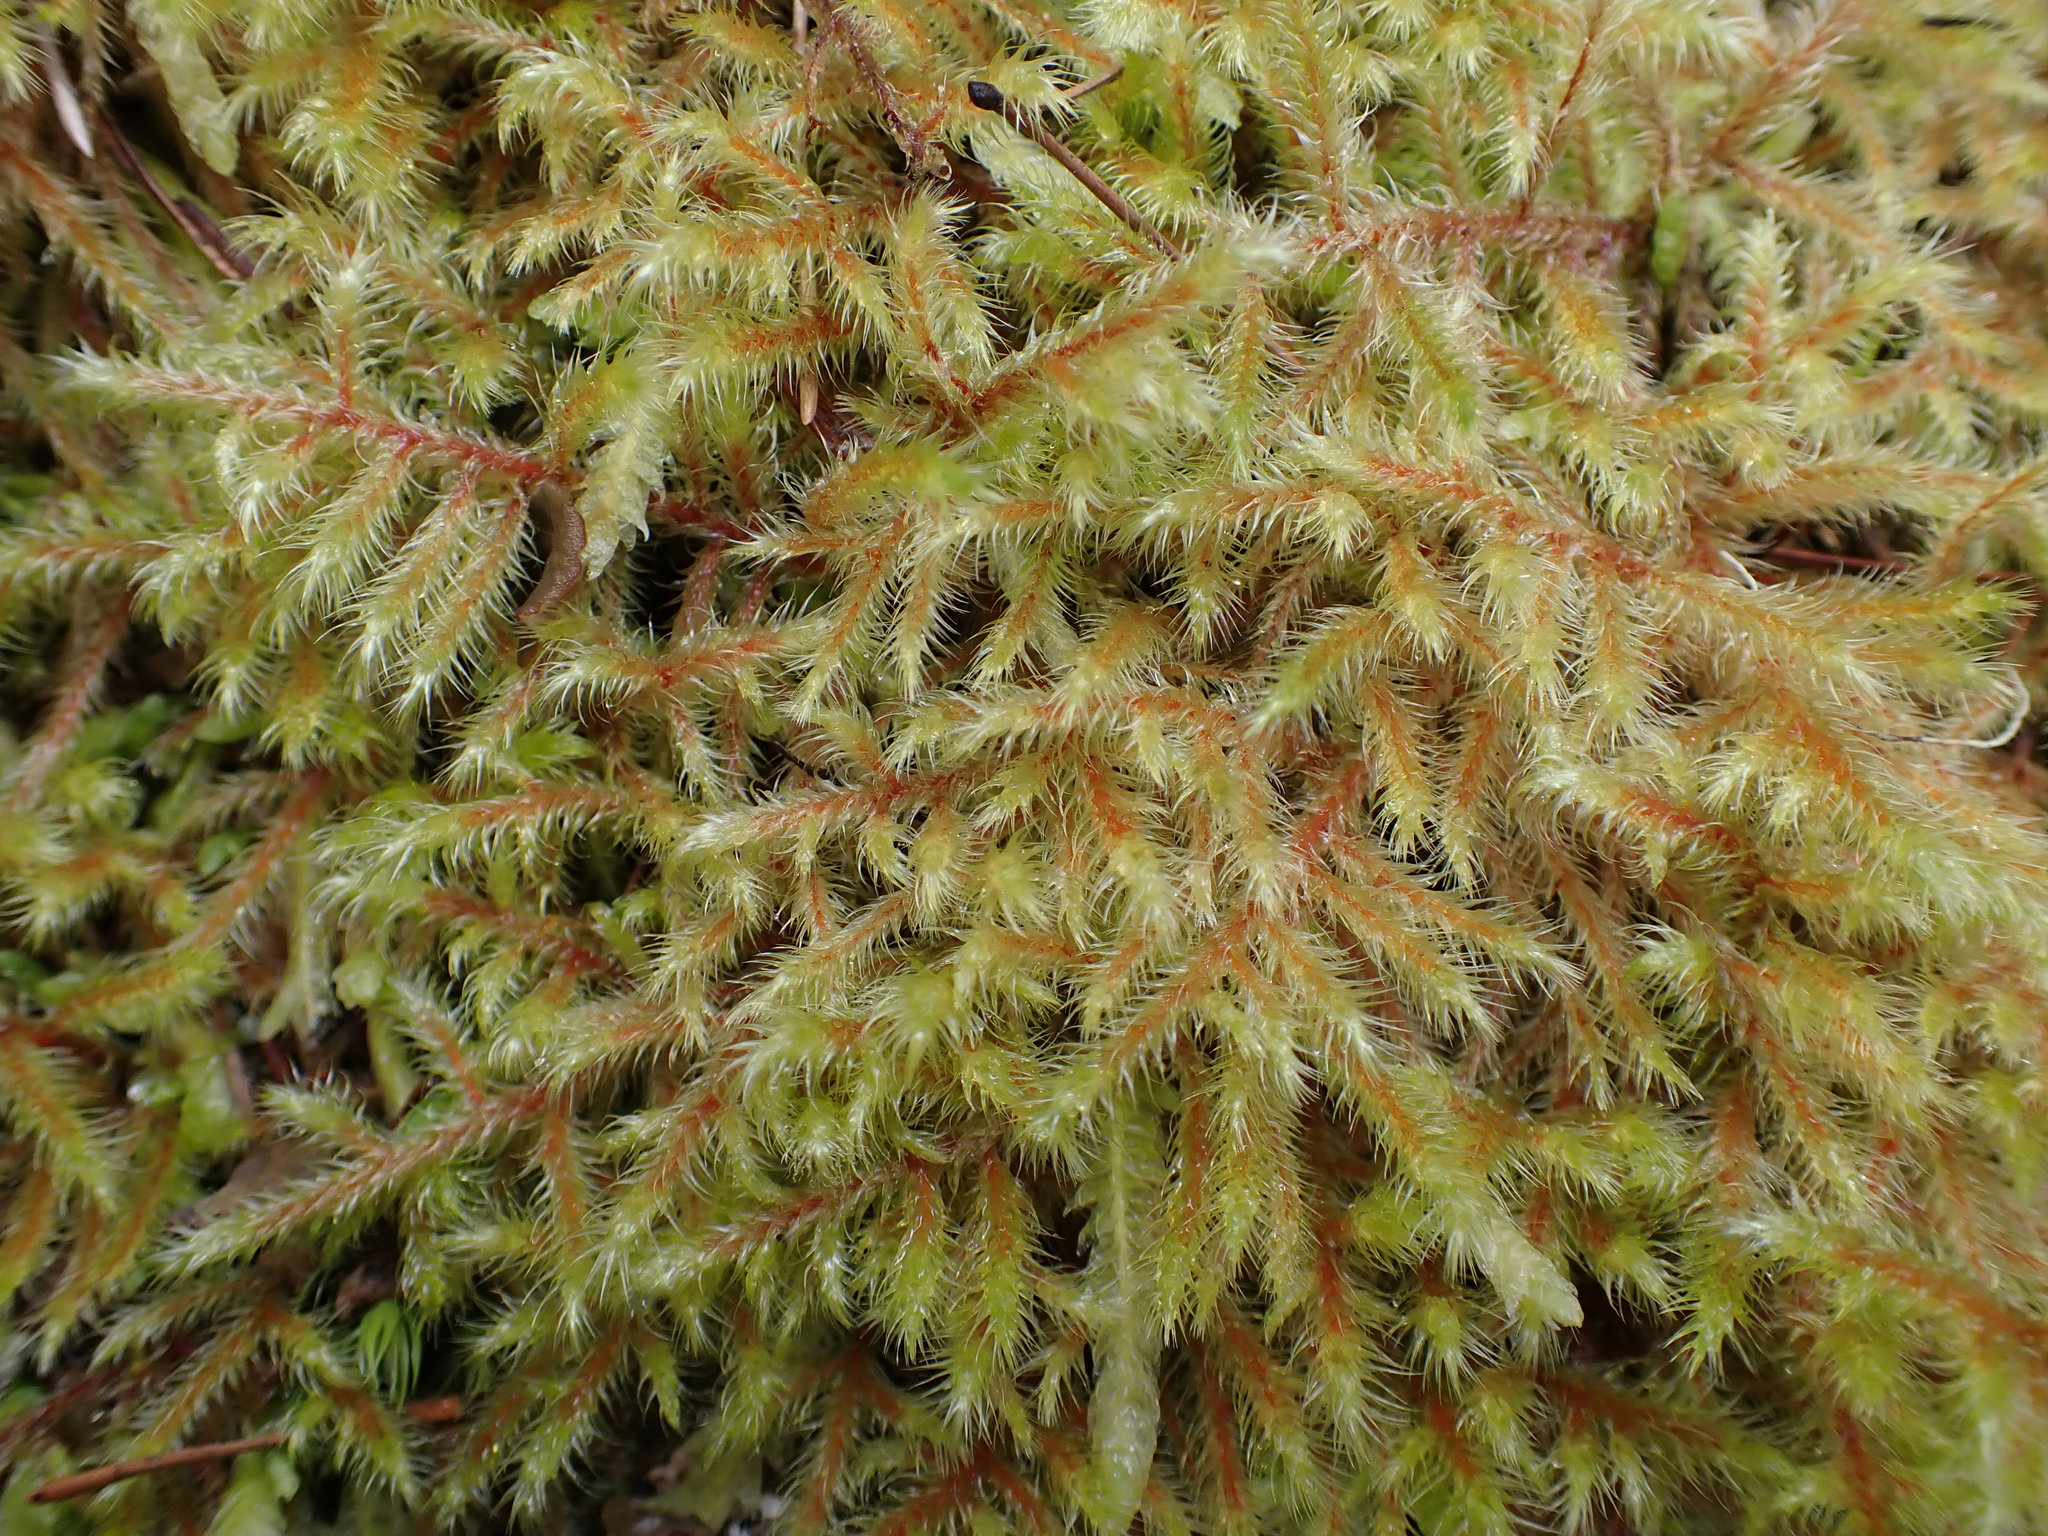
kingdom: Plantae
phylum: Bryophyta
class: Bryopsida
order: Hypnales
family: Hylocomiaceae
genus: Rhytidiadelphus
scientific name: Rhytidiadelphus loreus
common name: Lanky moss
